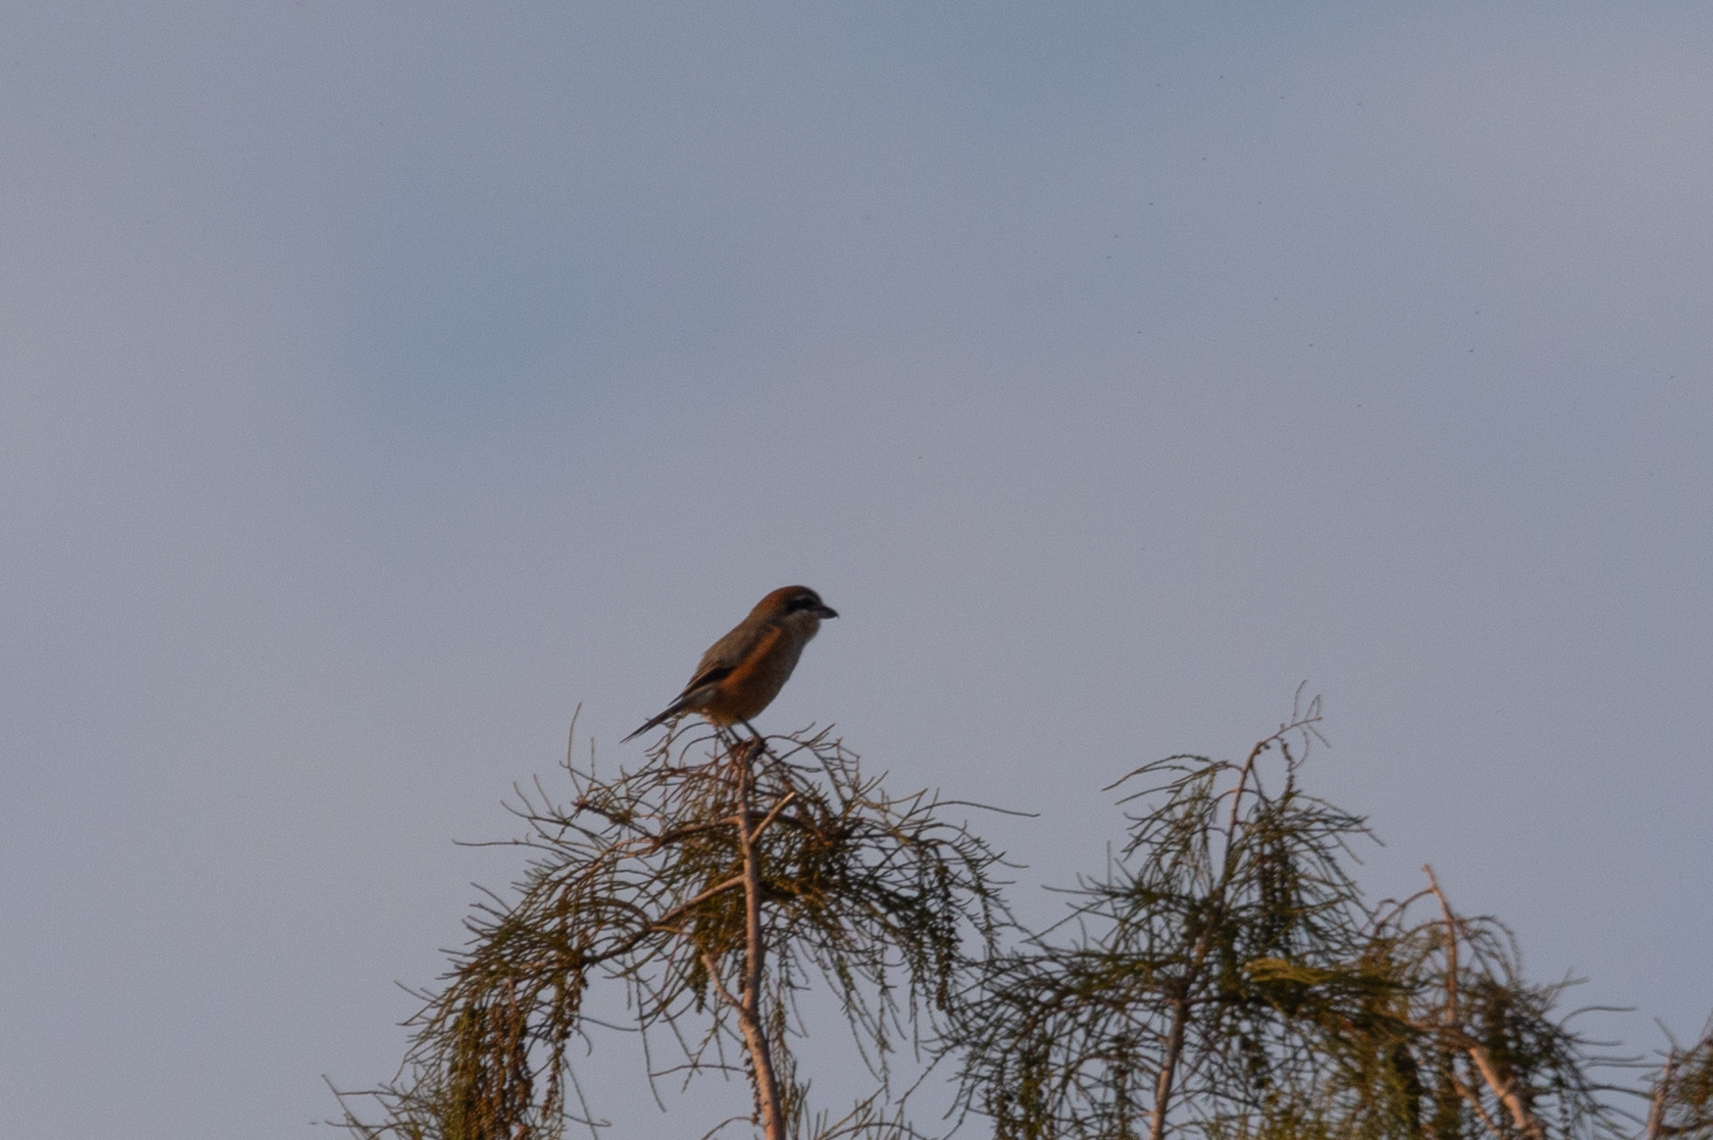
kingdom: Animalia
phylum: Chordata
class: Aves
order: Passeriformes
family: Laniidae
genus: Lanius
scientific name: Lanius bucephalus
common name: Bull-headed shrike
